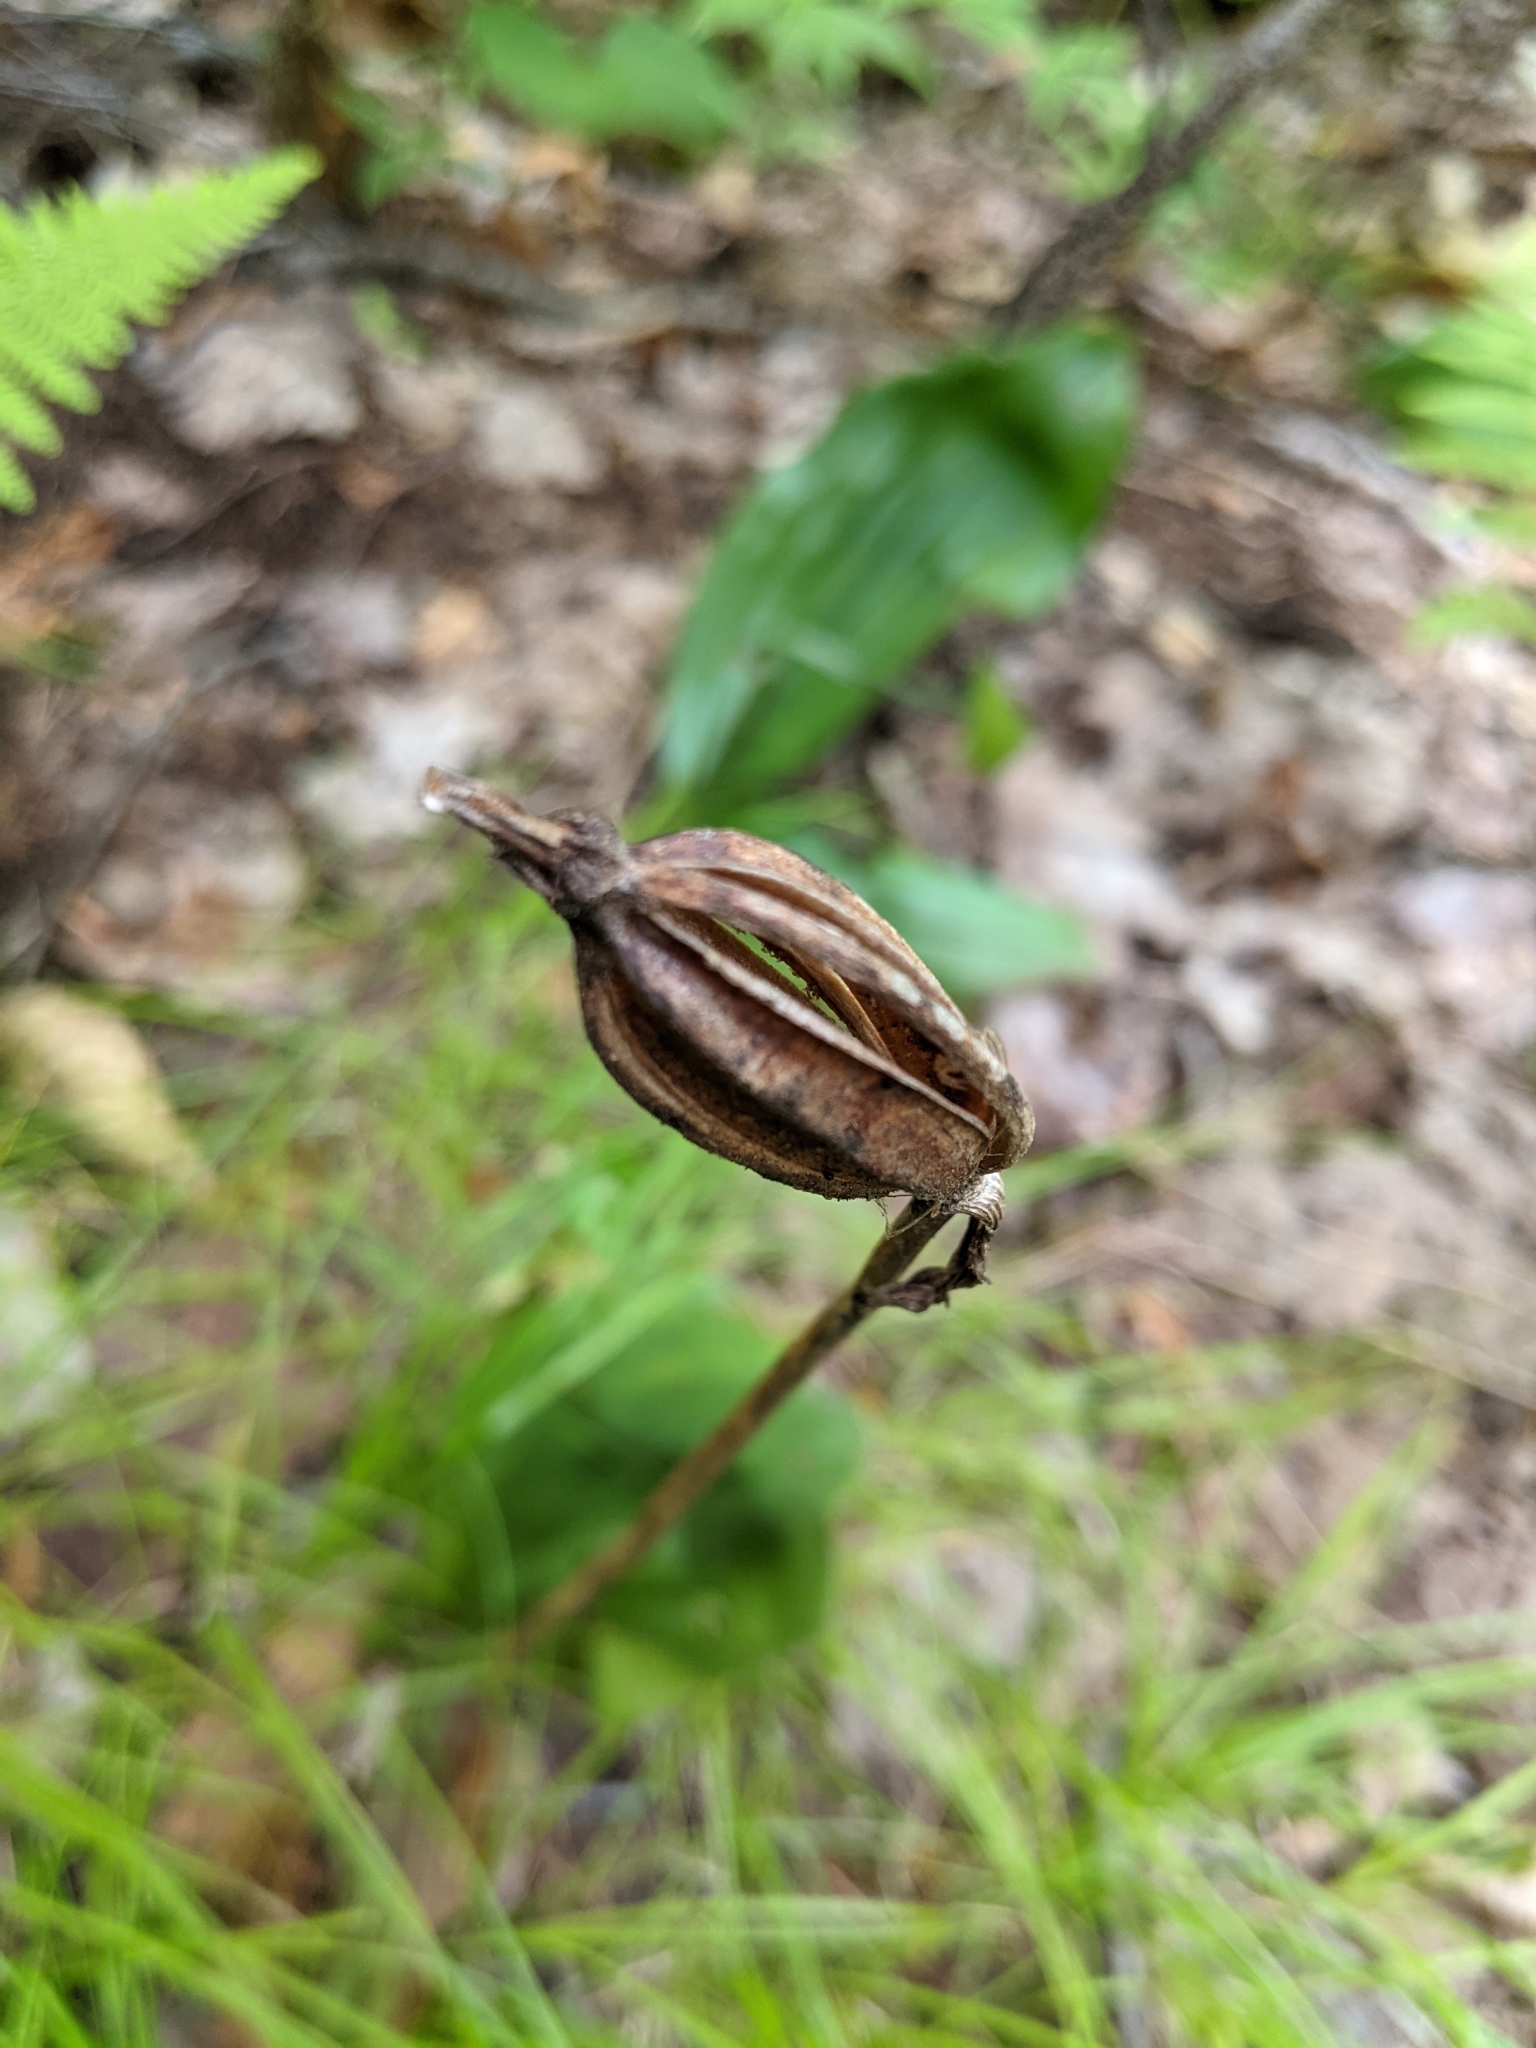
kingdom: Plantae
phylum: Tracheophyta
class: Liliopsida
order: Asparagales
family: Orchidaceae
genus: Cypripedium
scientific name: Cypripedium acaule
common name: Pink lady's-slipper
